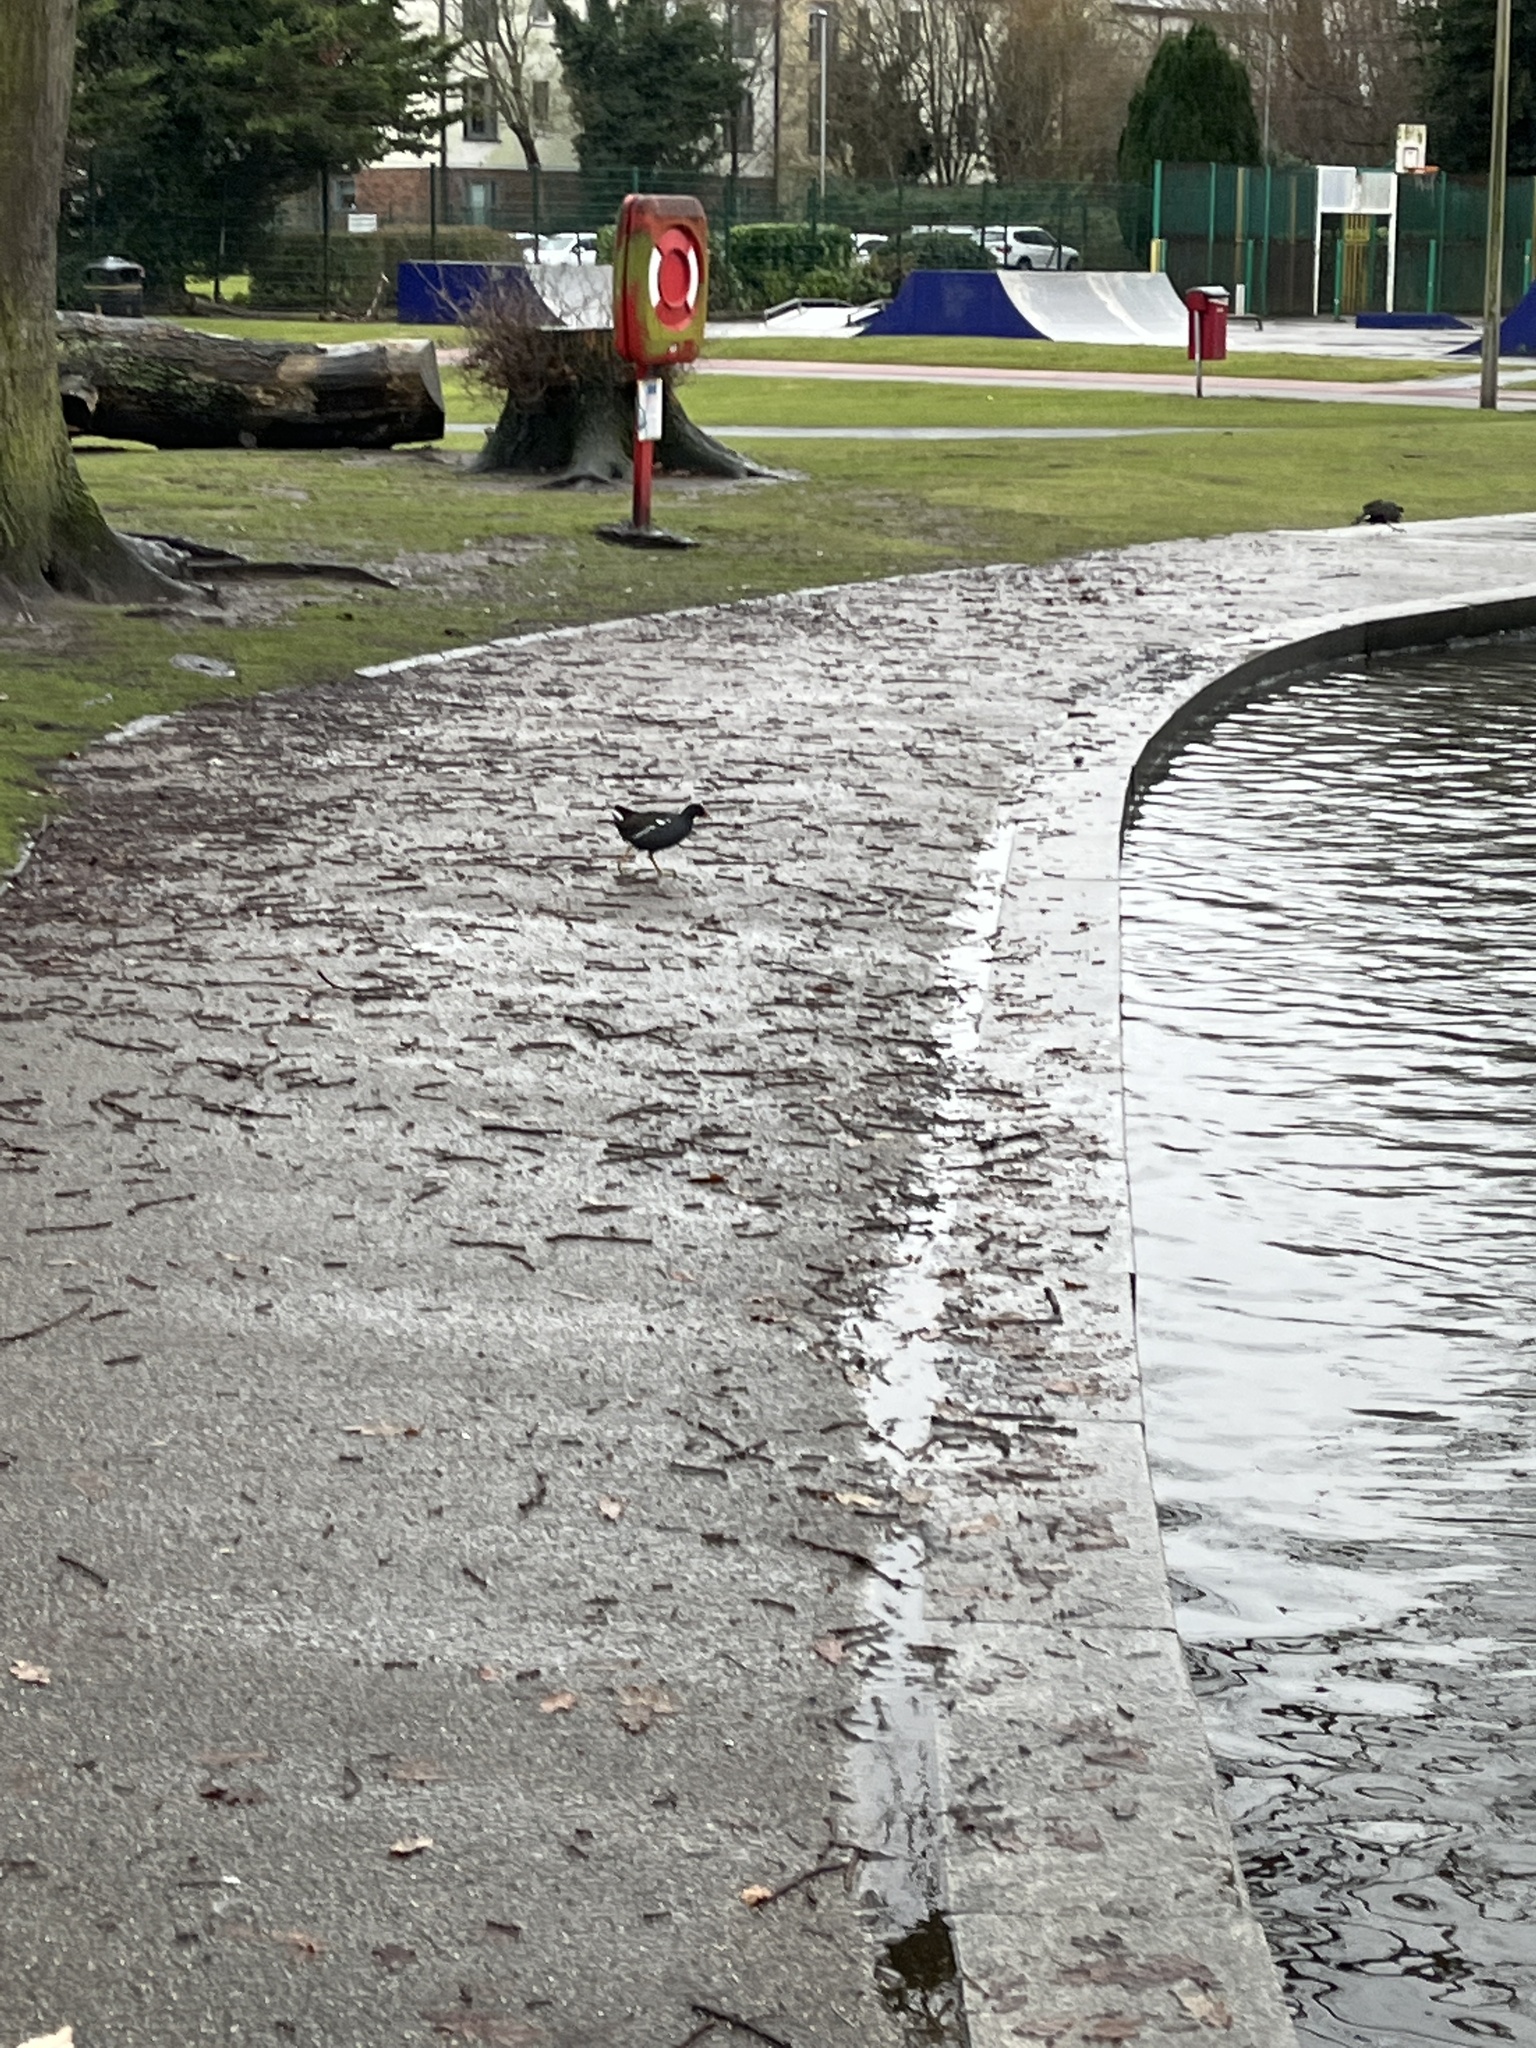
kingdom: Animalia
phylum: Chordata
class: Aves
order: Gruiformes
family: Rallidae
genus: Gallinula
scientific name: Gallinula chloropus
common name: Common moorhen
